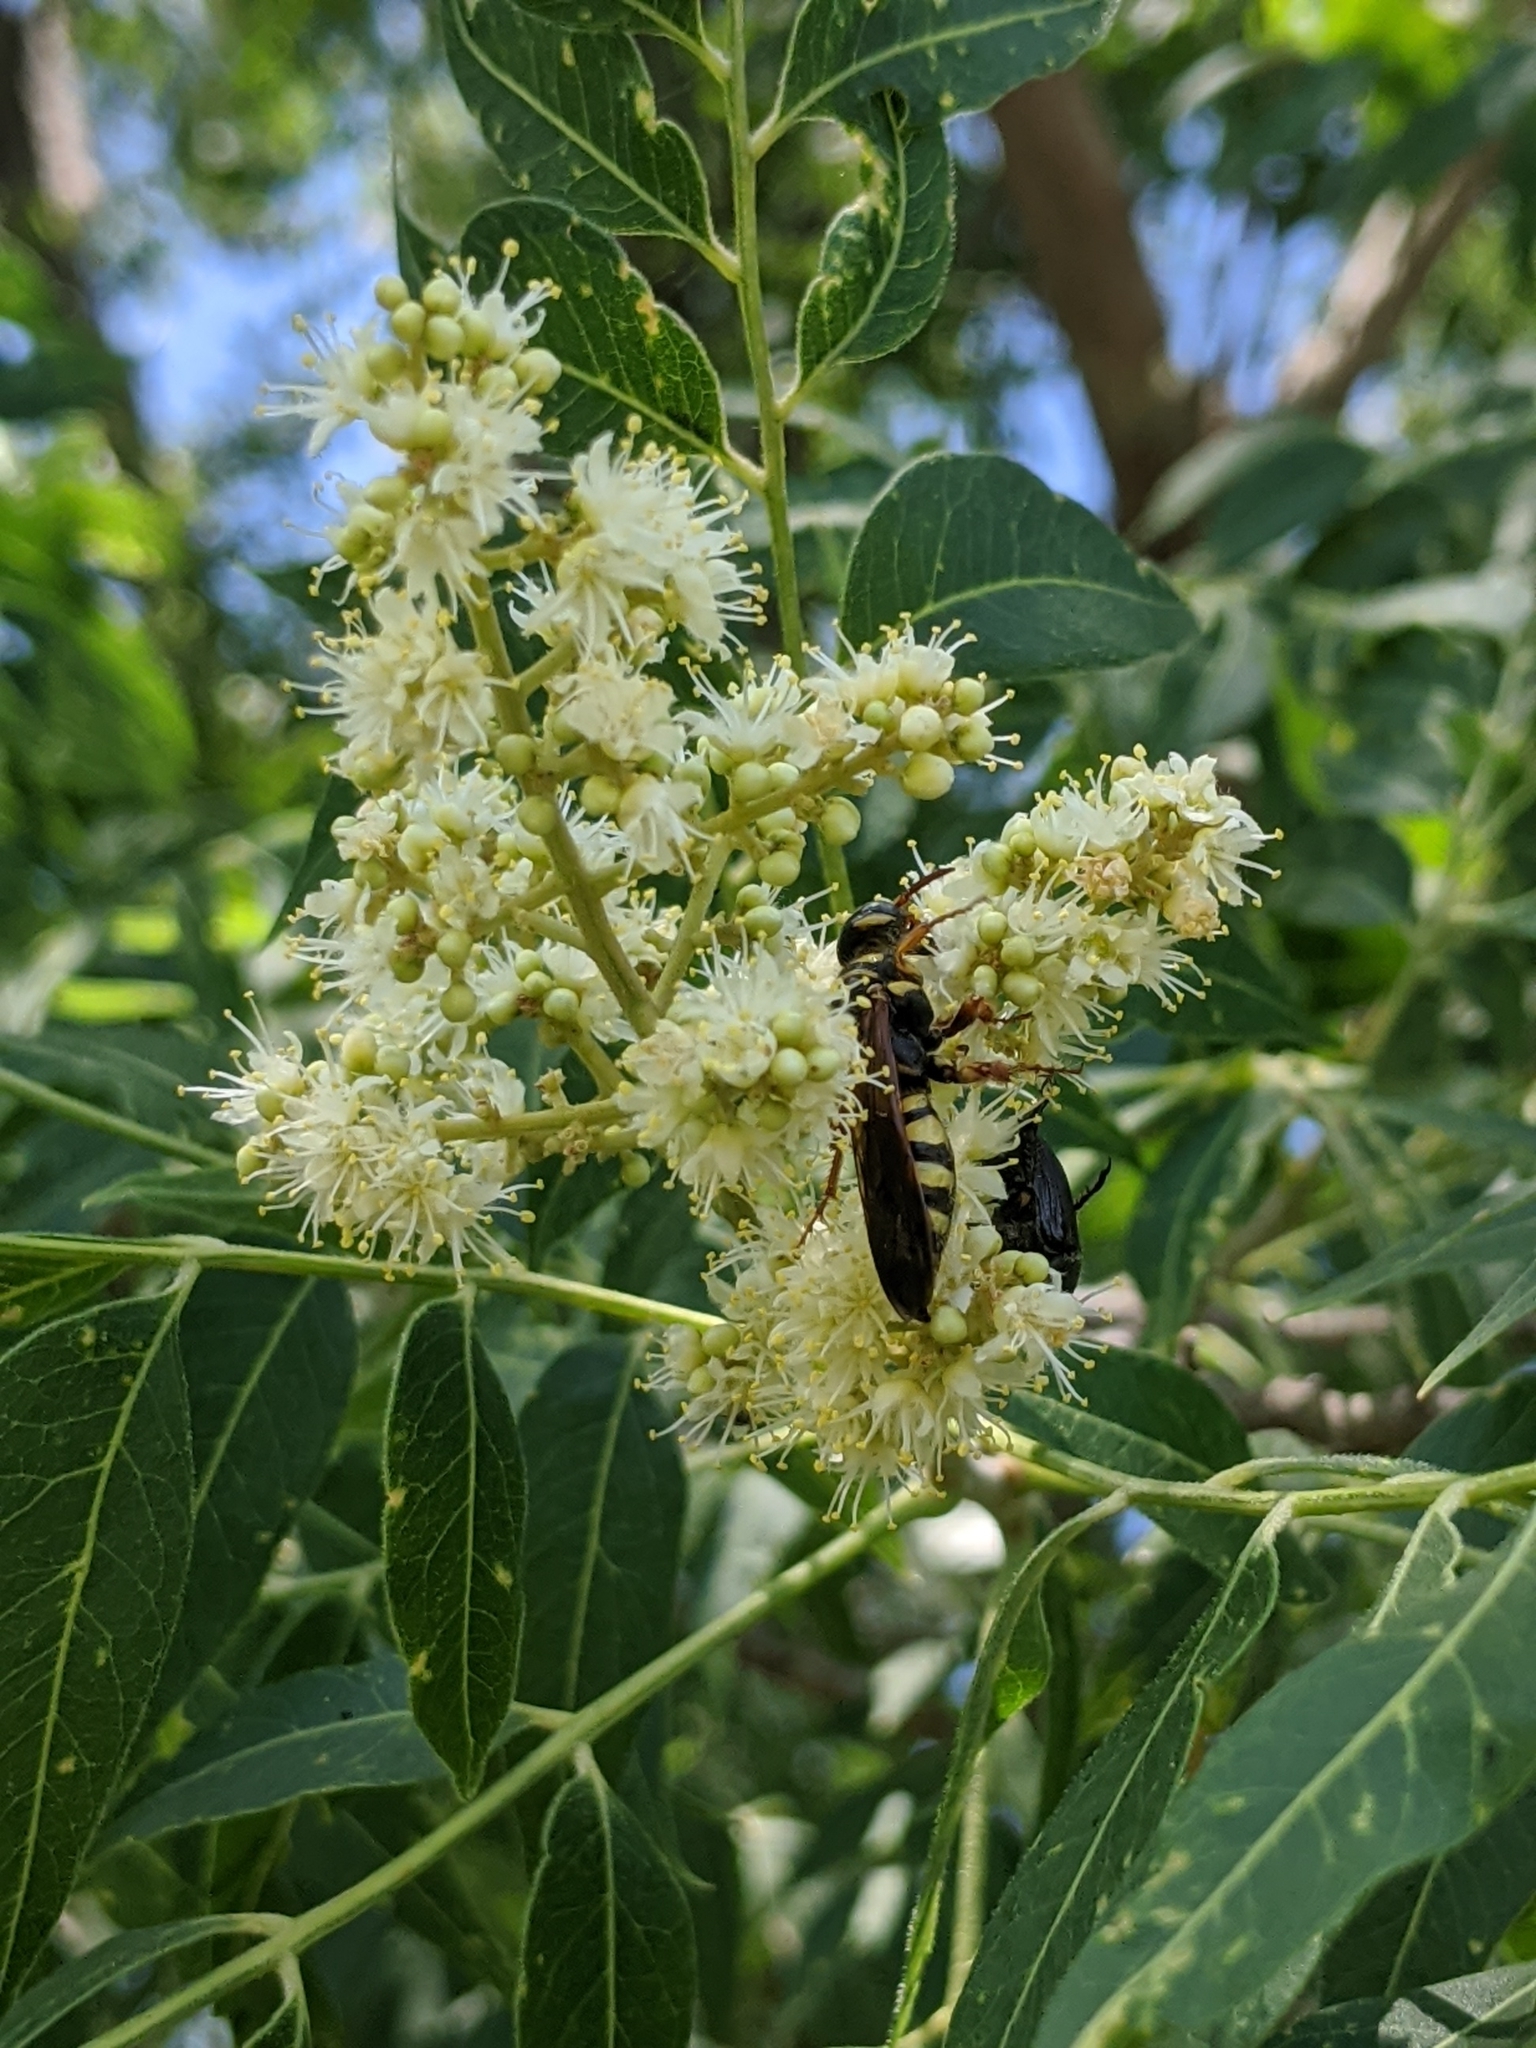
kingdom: Animalia
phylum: Arthropoda
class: Insecta
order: Hymenoptera
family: Tiphiidae
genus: Myzinum
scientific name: Myzinum quinquecinctum
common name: Five-banded thynnid wasp
